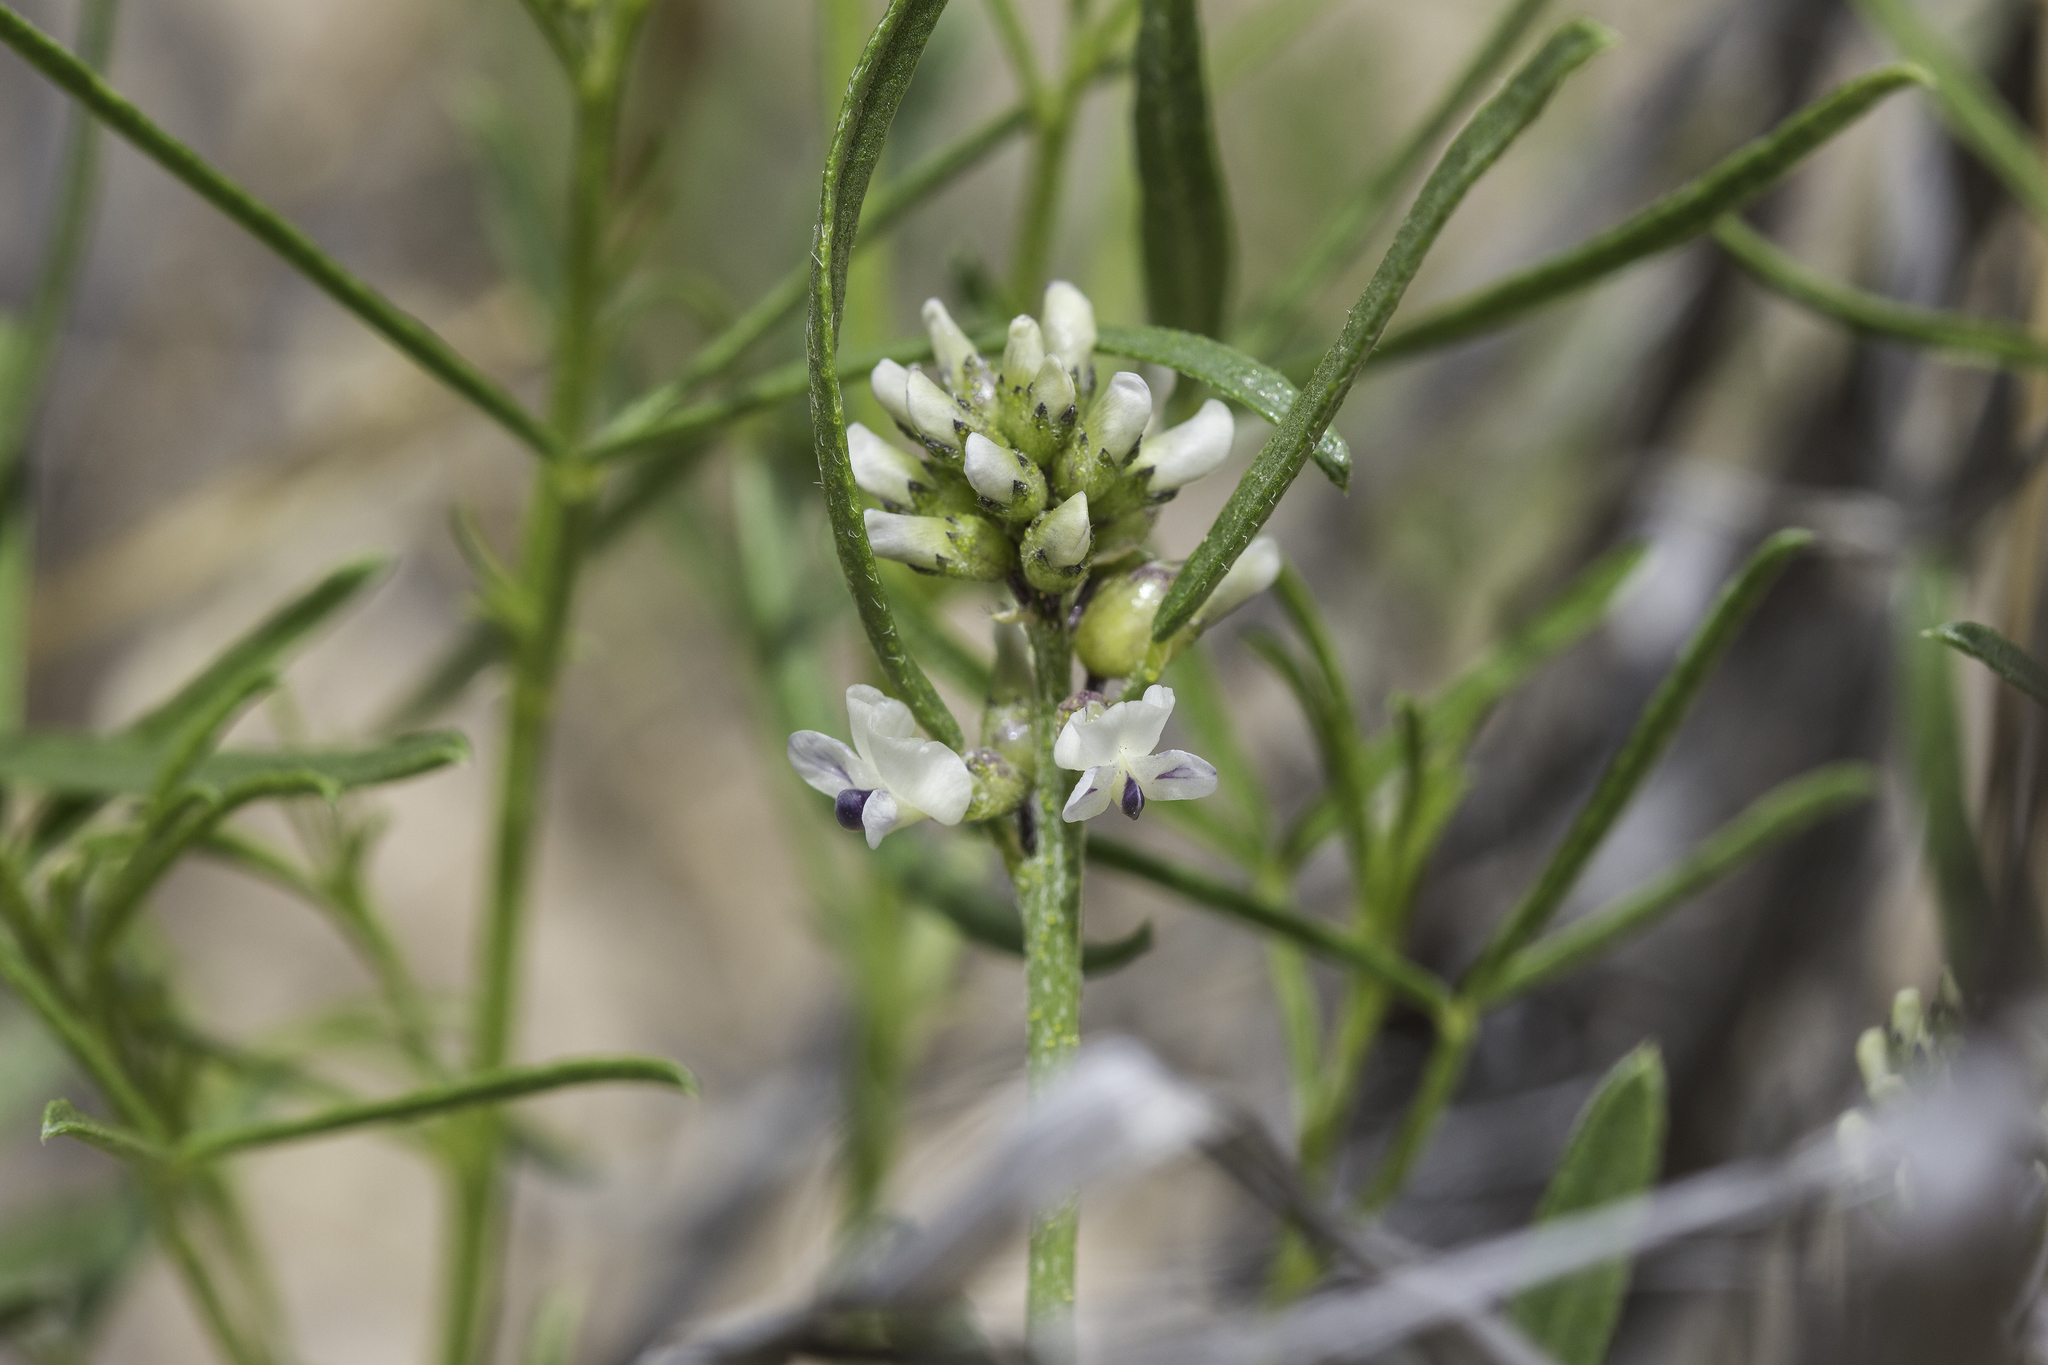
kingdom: Plantae
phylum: Tracheophyta
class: Magnoliopsida
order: Fabales
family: Fabaceae
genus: Ladeania
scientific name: Ladeania lanceolata
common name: Dune scurf-pea
